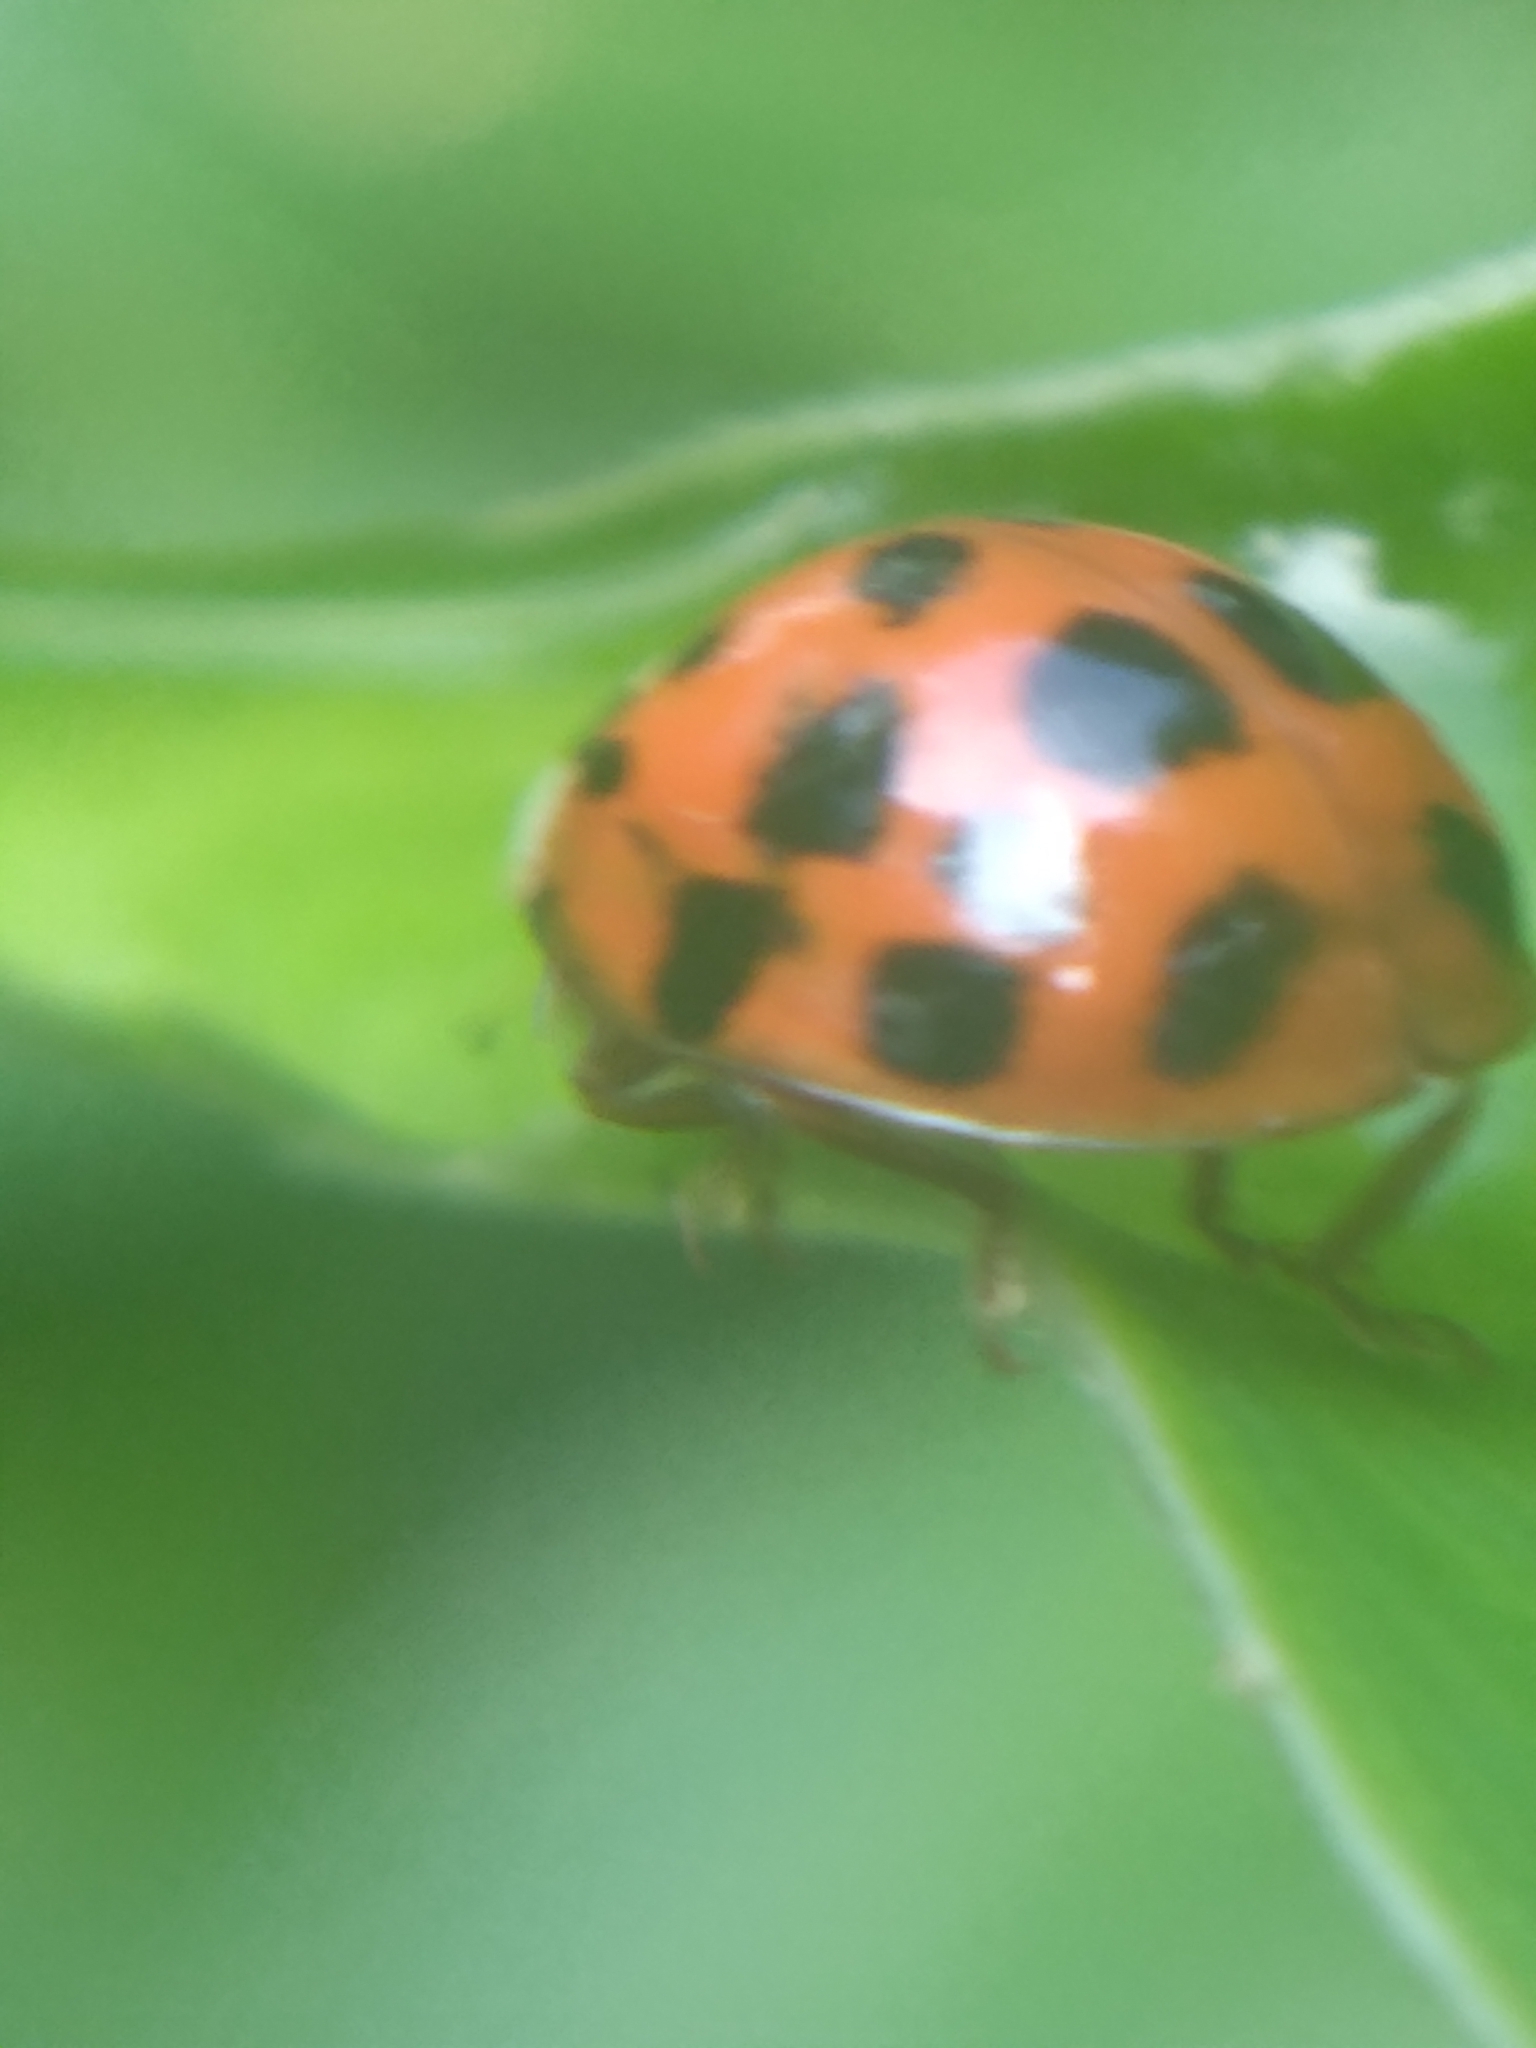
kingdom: Animalia
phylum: Arthropoda
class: Insecta
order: Coleoptera
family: Coccinellidae
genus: Harmonia
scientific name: Harmonia axyridis
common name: Harlequin ladybird
